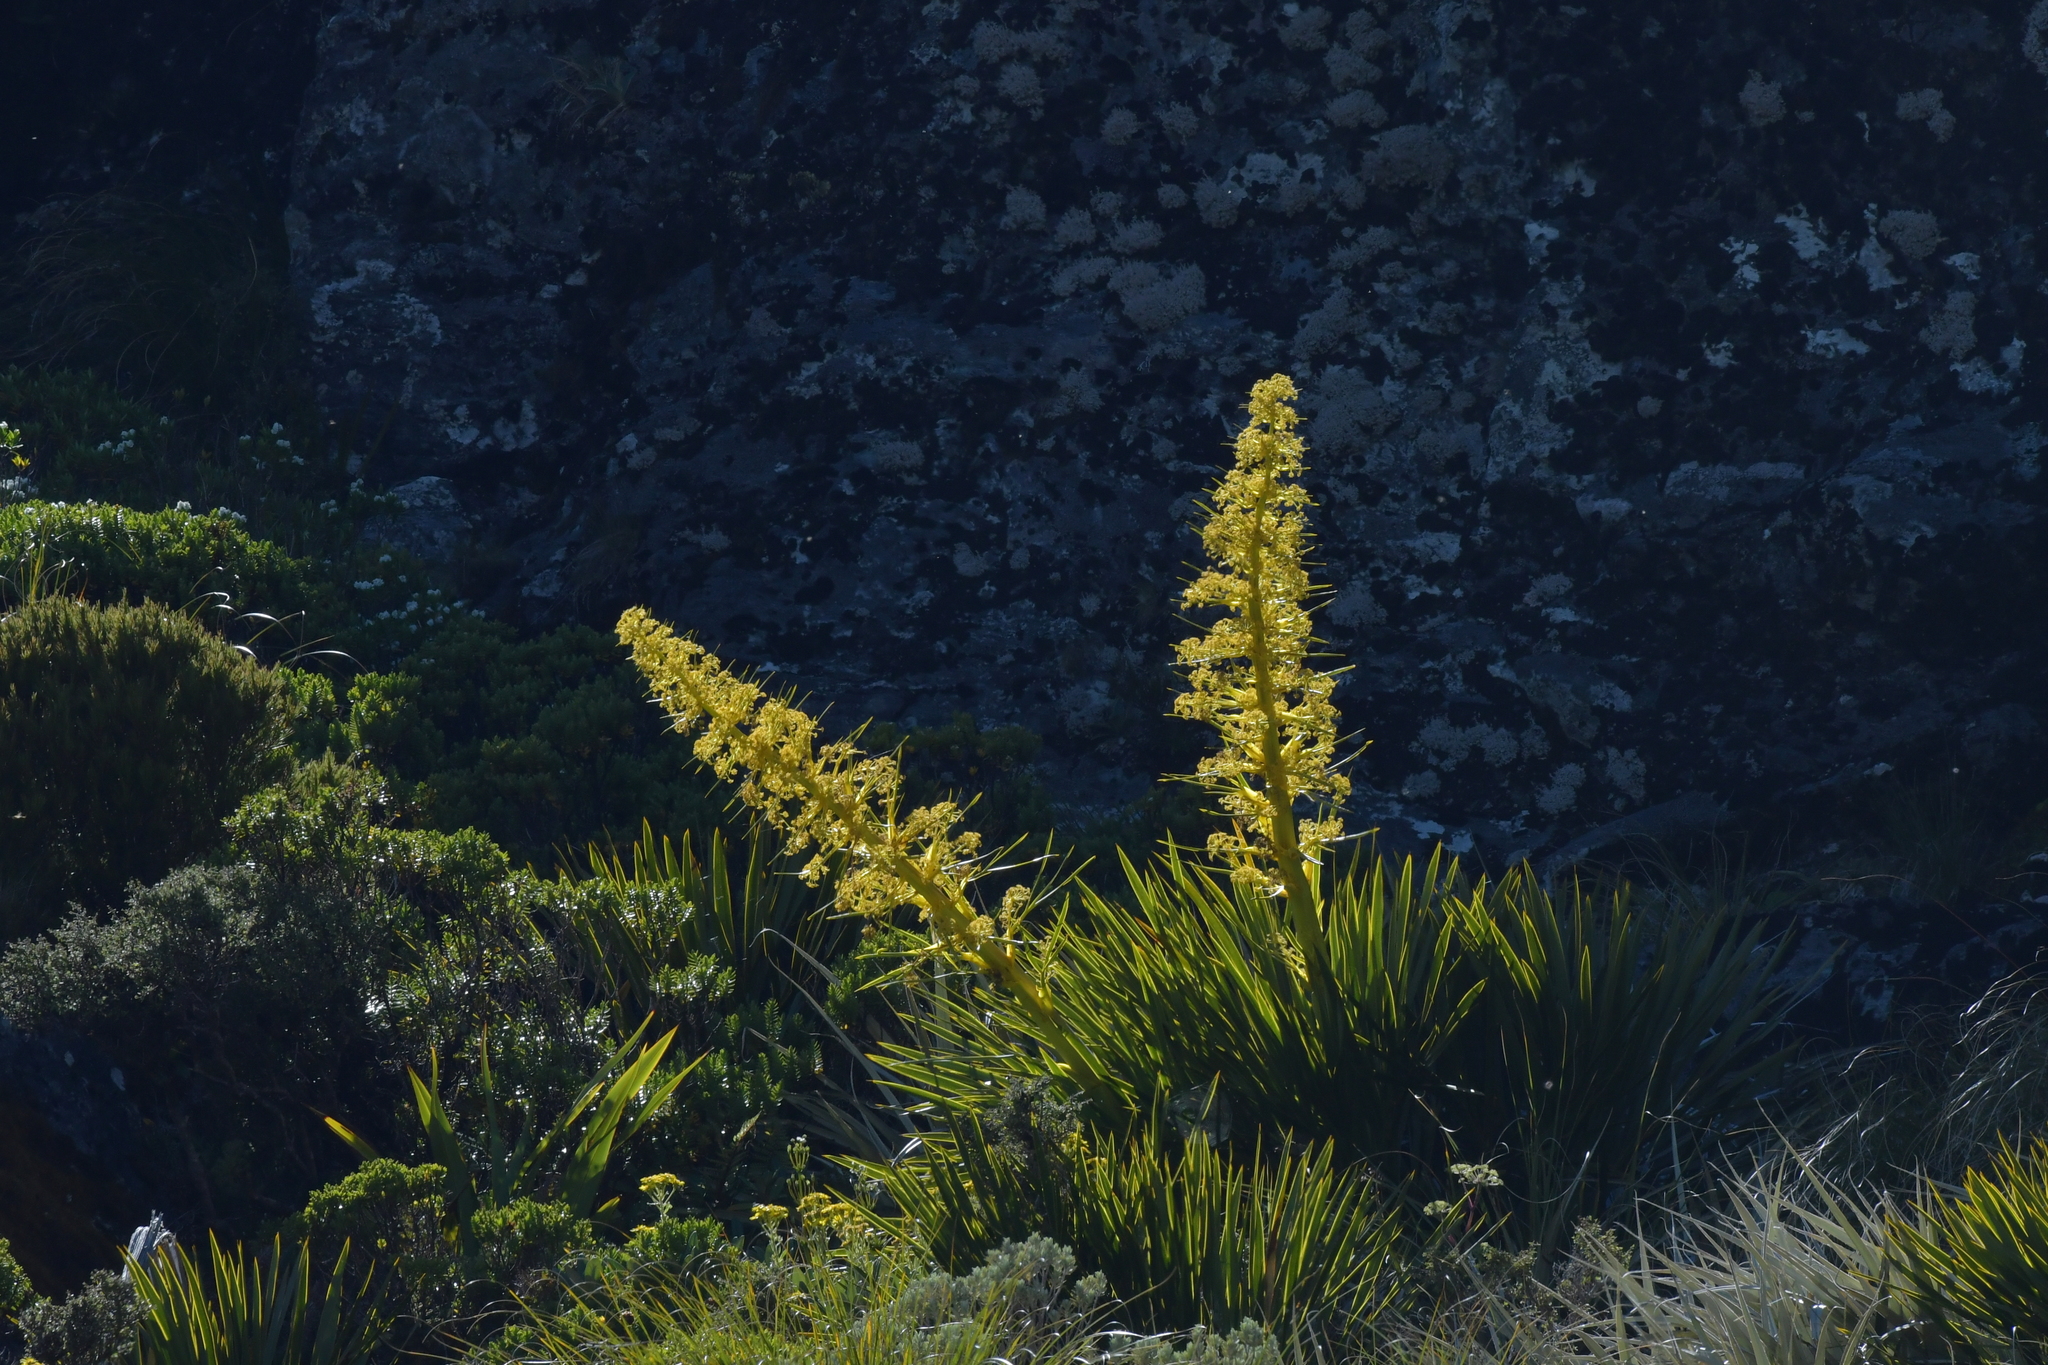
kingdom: Plantae
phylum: Tracheophyta
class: Magnoliopsida
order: Apiales
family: Apiaceae
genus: Aciphylla
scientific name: Aciphylla horrida
